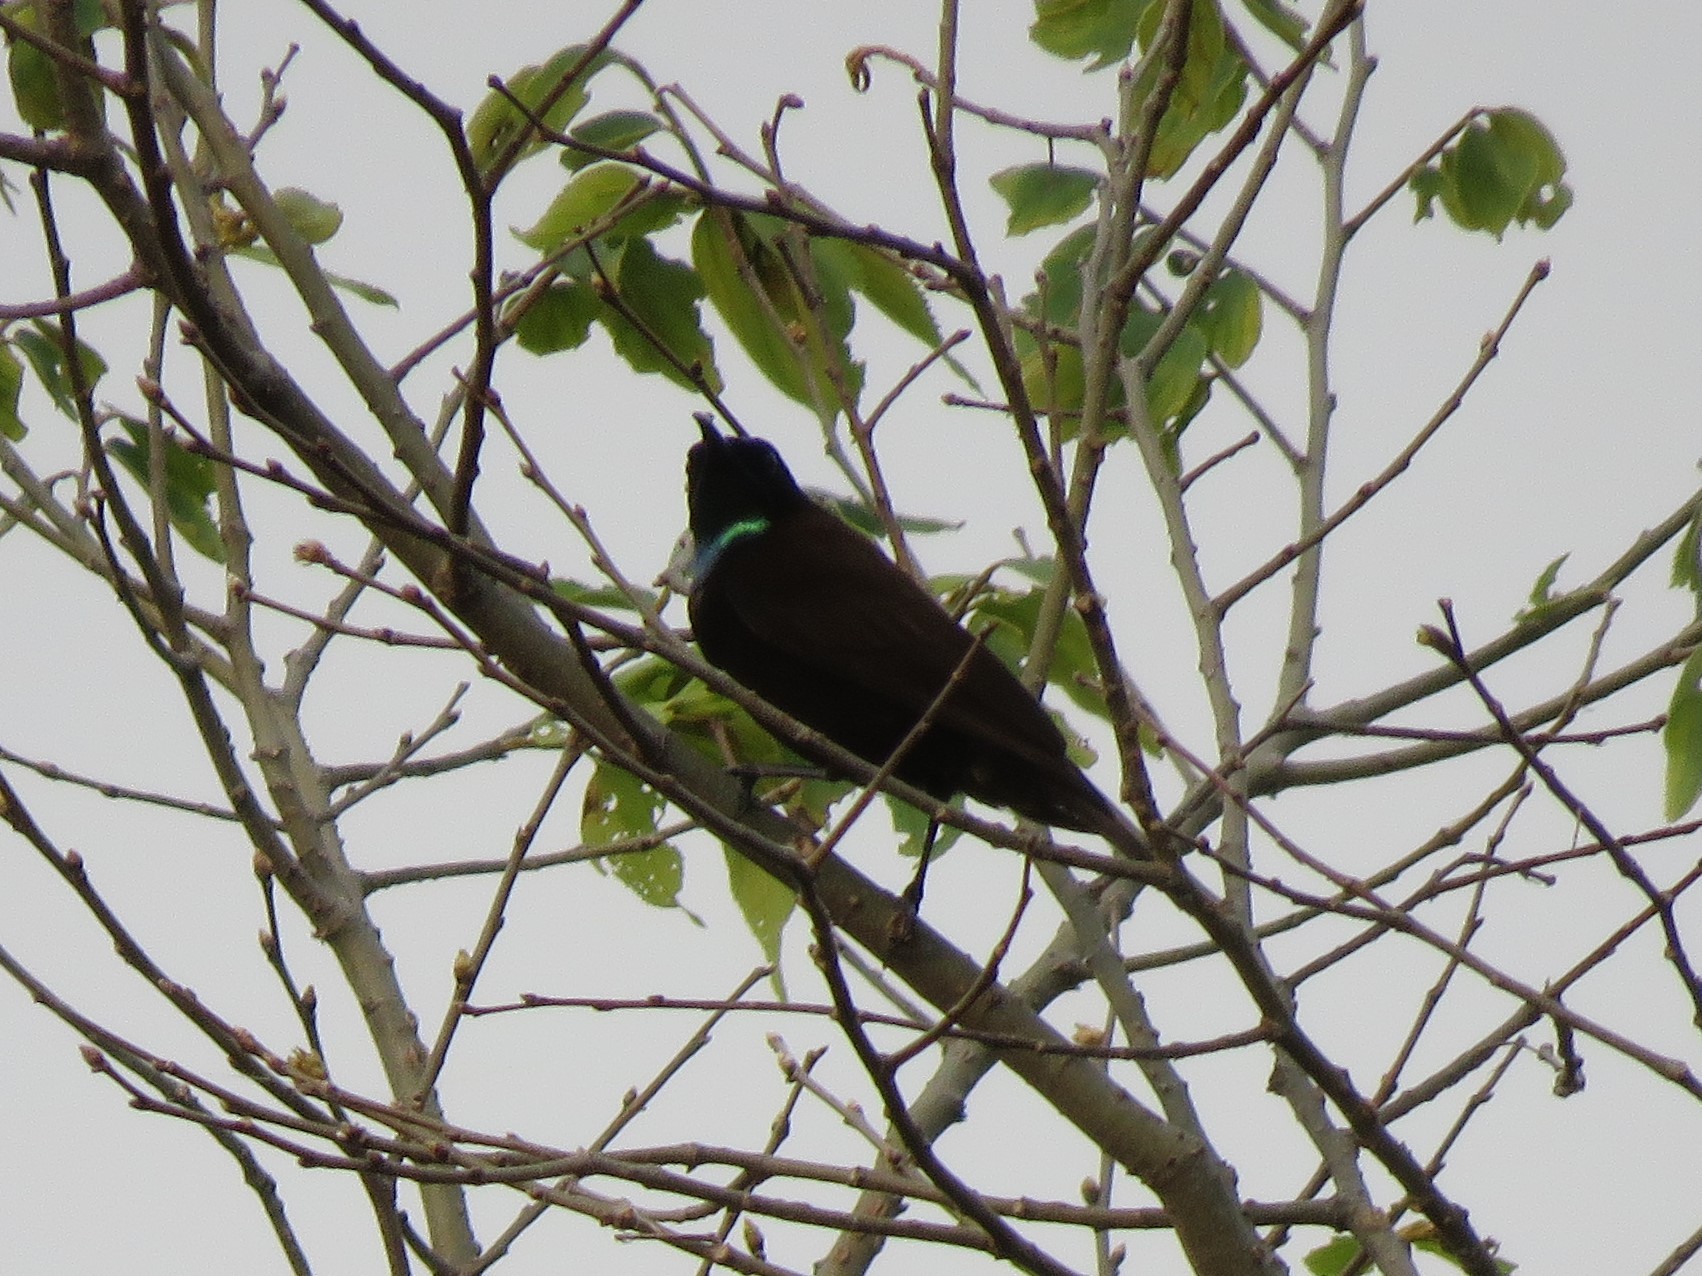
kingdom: Animalia
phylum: Chordata
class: Aves
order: Passeriformes
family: Nectariniidae
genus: Chalcomitra
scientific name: Chalcomitra rubescens
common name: Green-throated sunbird
